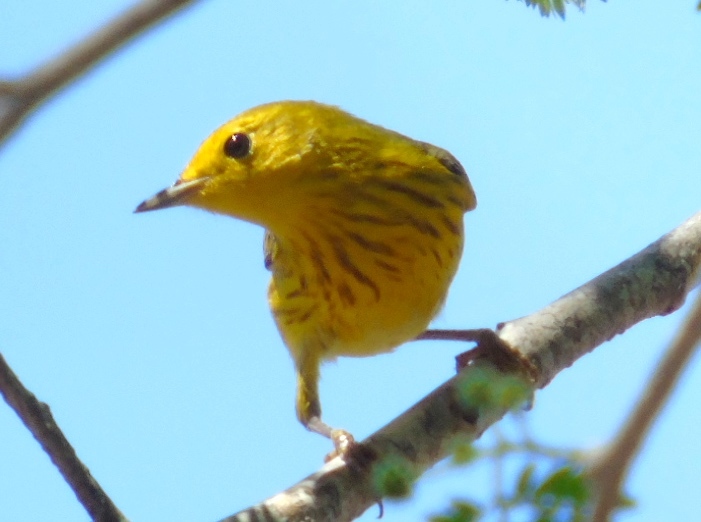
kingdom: Animalia
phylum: Chordata
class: Aves
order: Passeriformes
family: Parulidae
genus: Setophaga
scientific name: Setophaga petechia
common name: Yellow warbler
